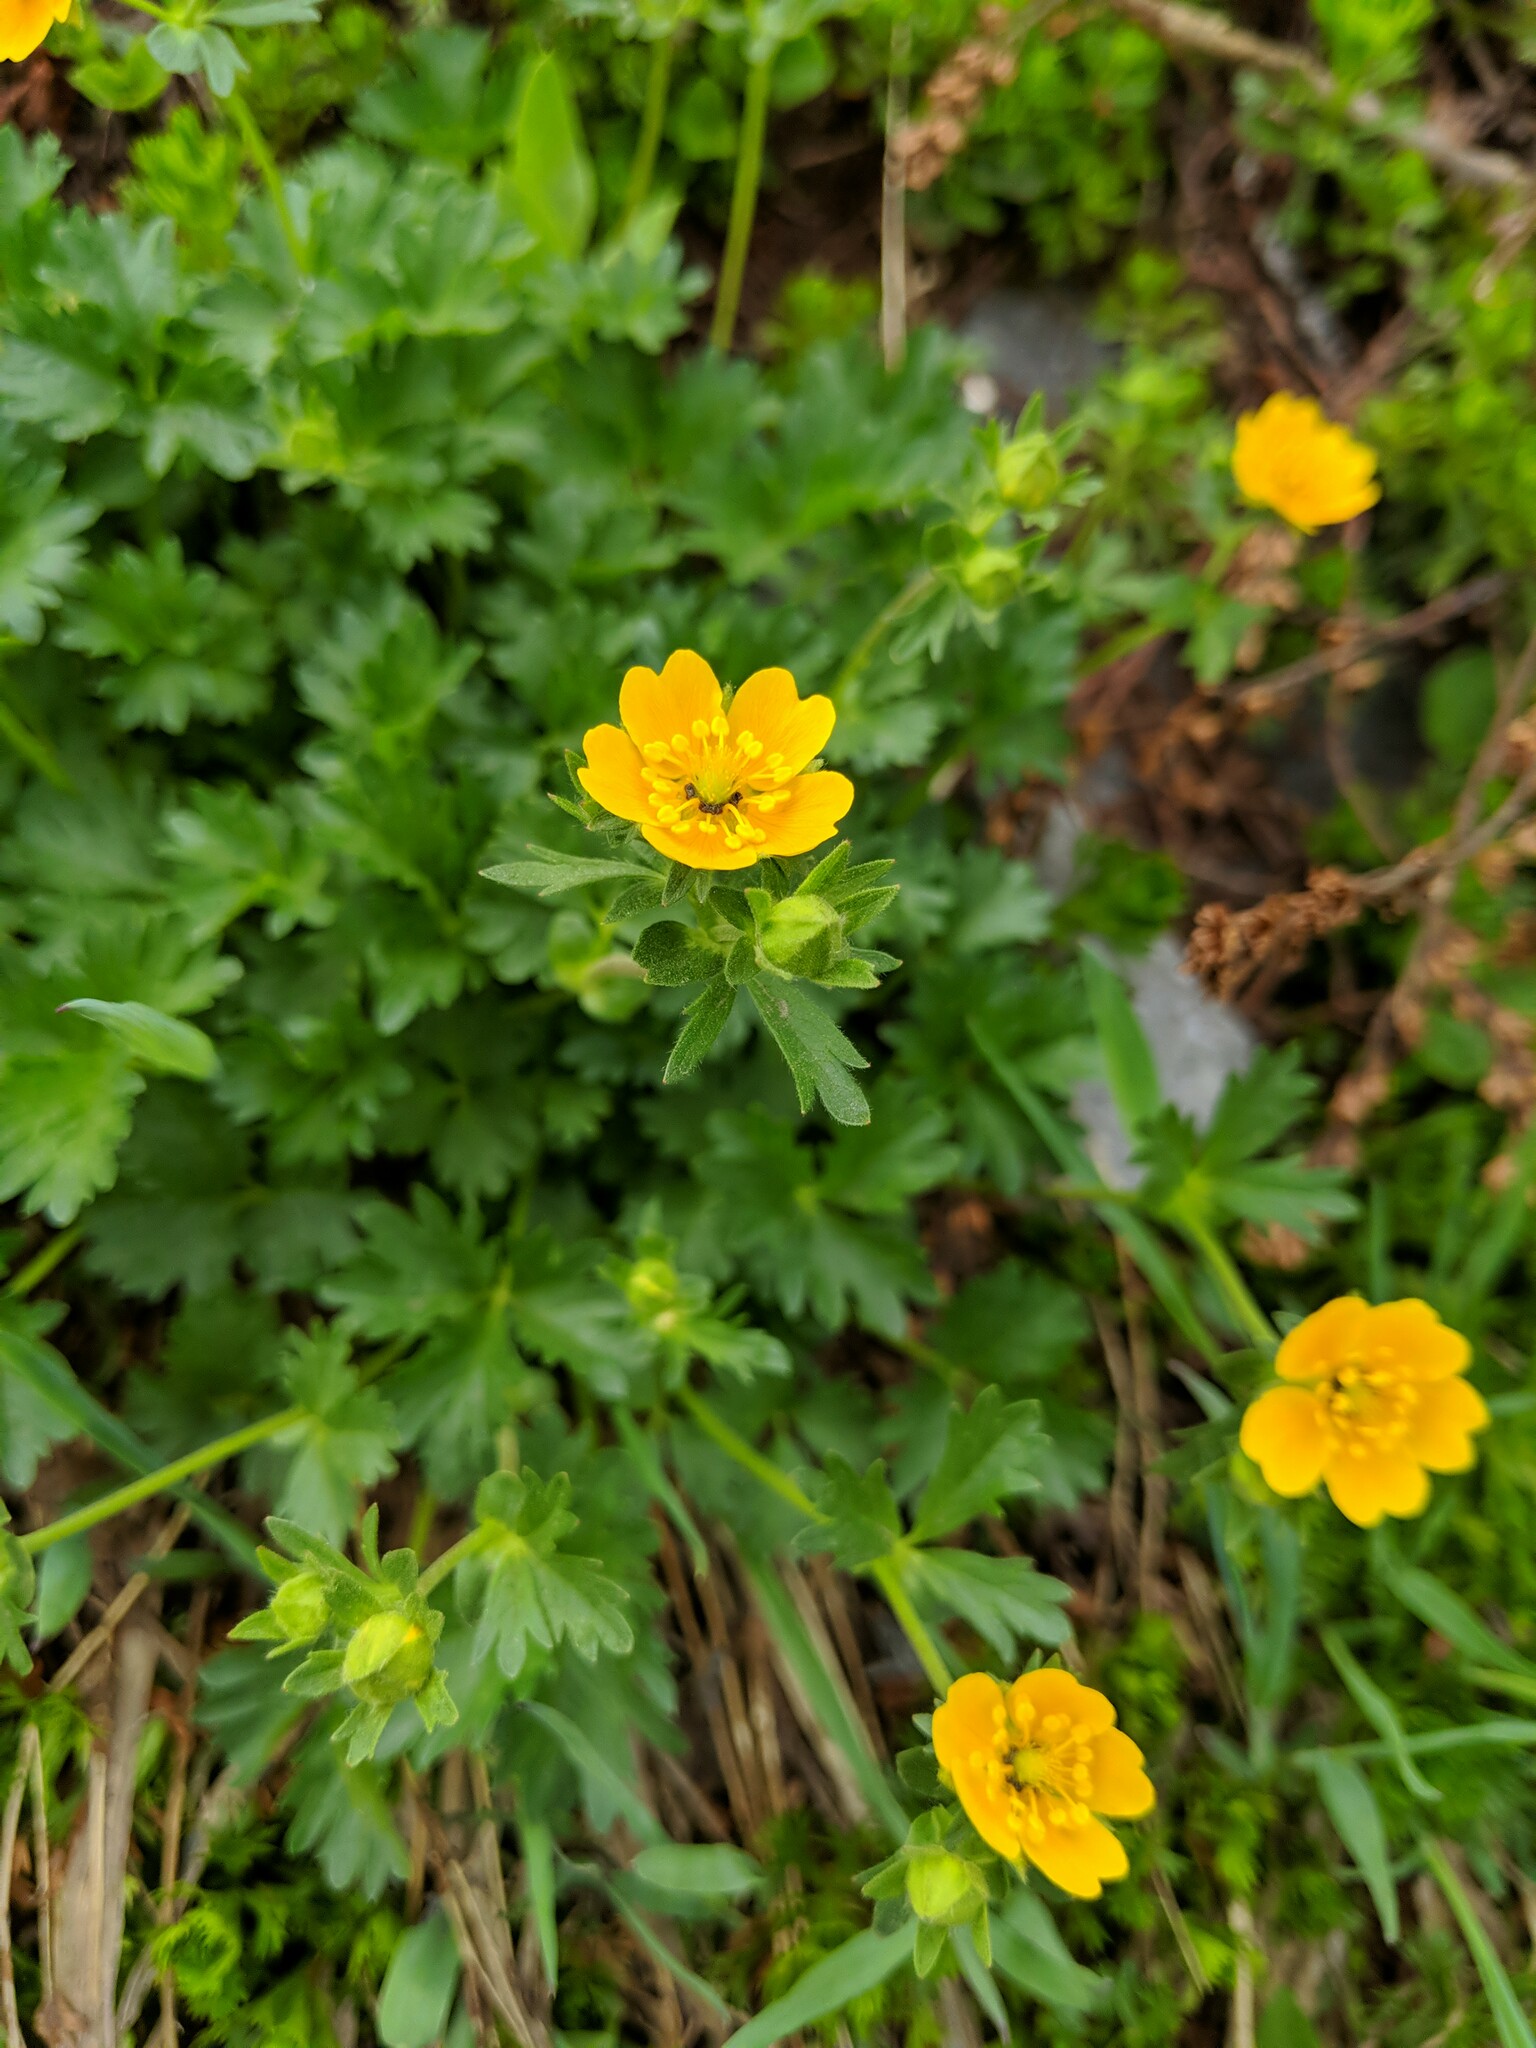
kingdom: Plantae
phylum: Tracheophyta
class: Magnoliopsida
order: Rosales
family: Rosaceae
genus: Potentilla
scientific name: Potentilla flabellifolia
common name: Mount rainier cinquefoil
